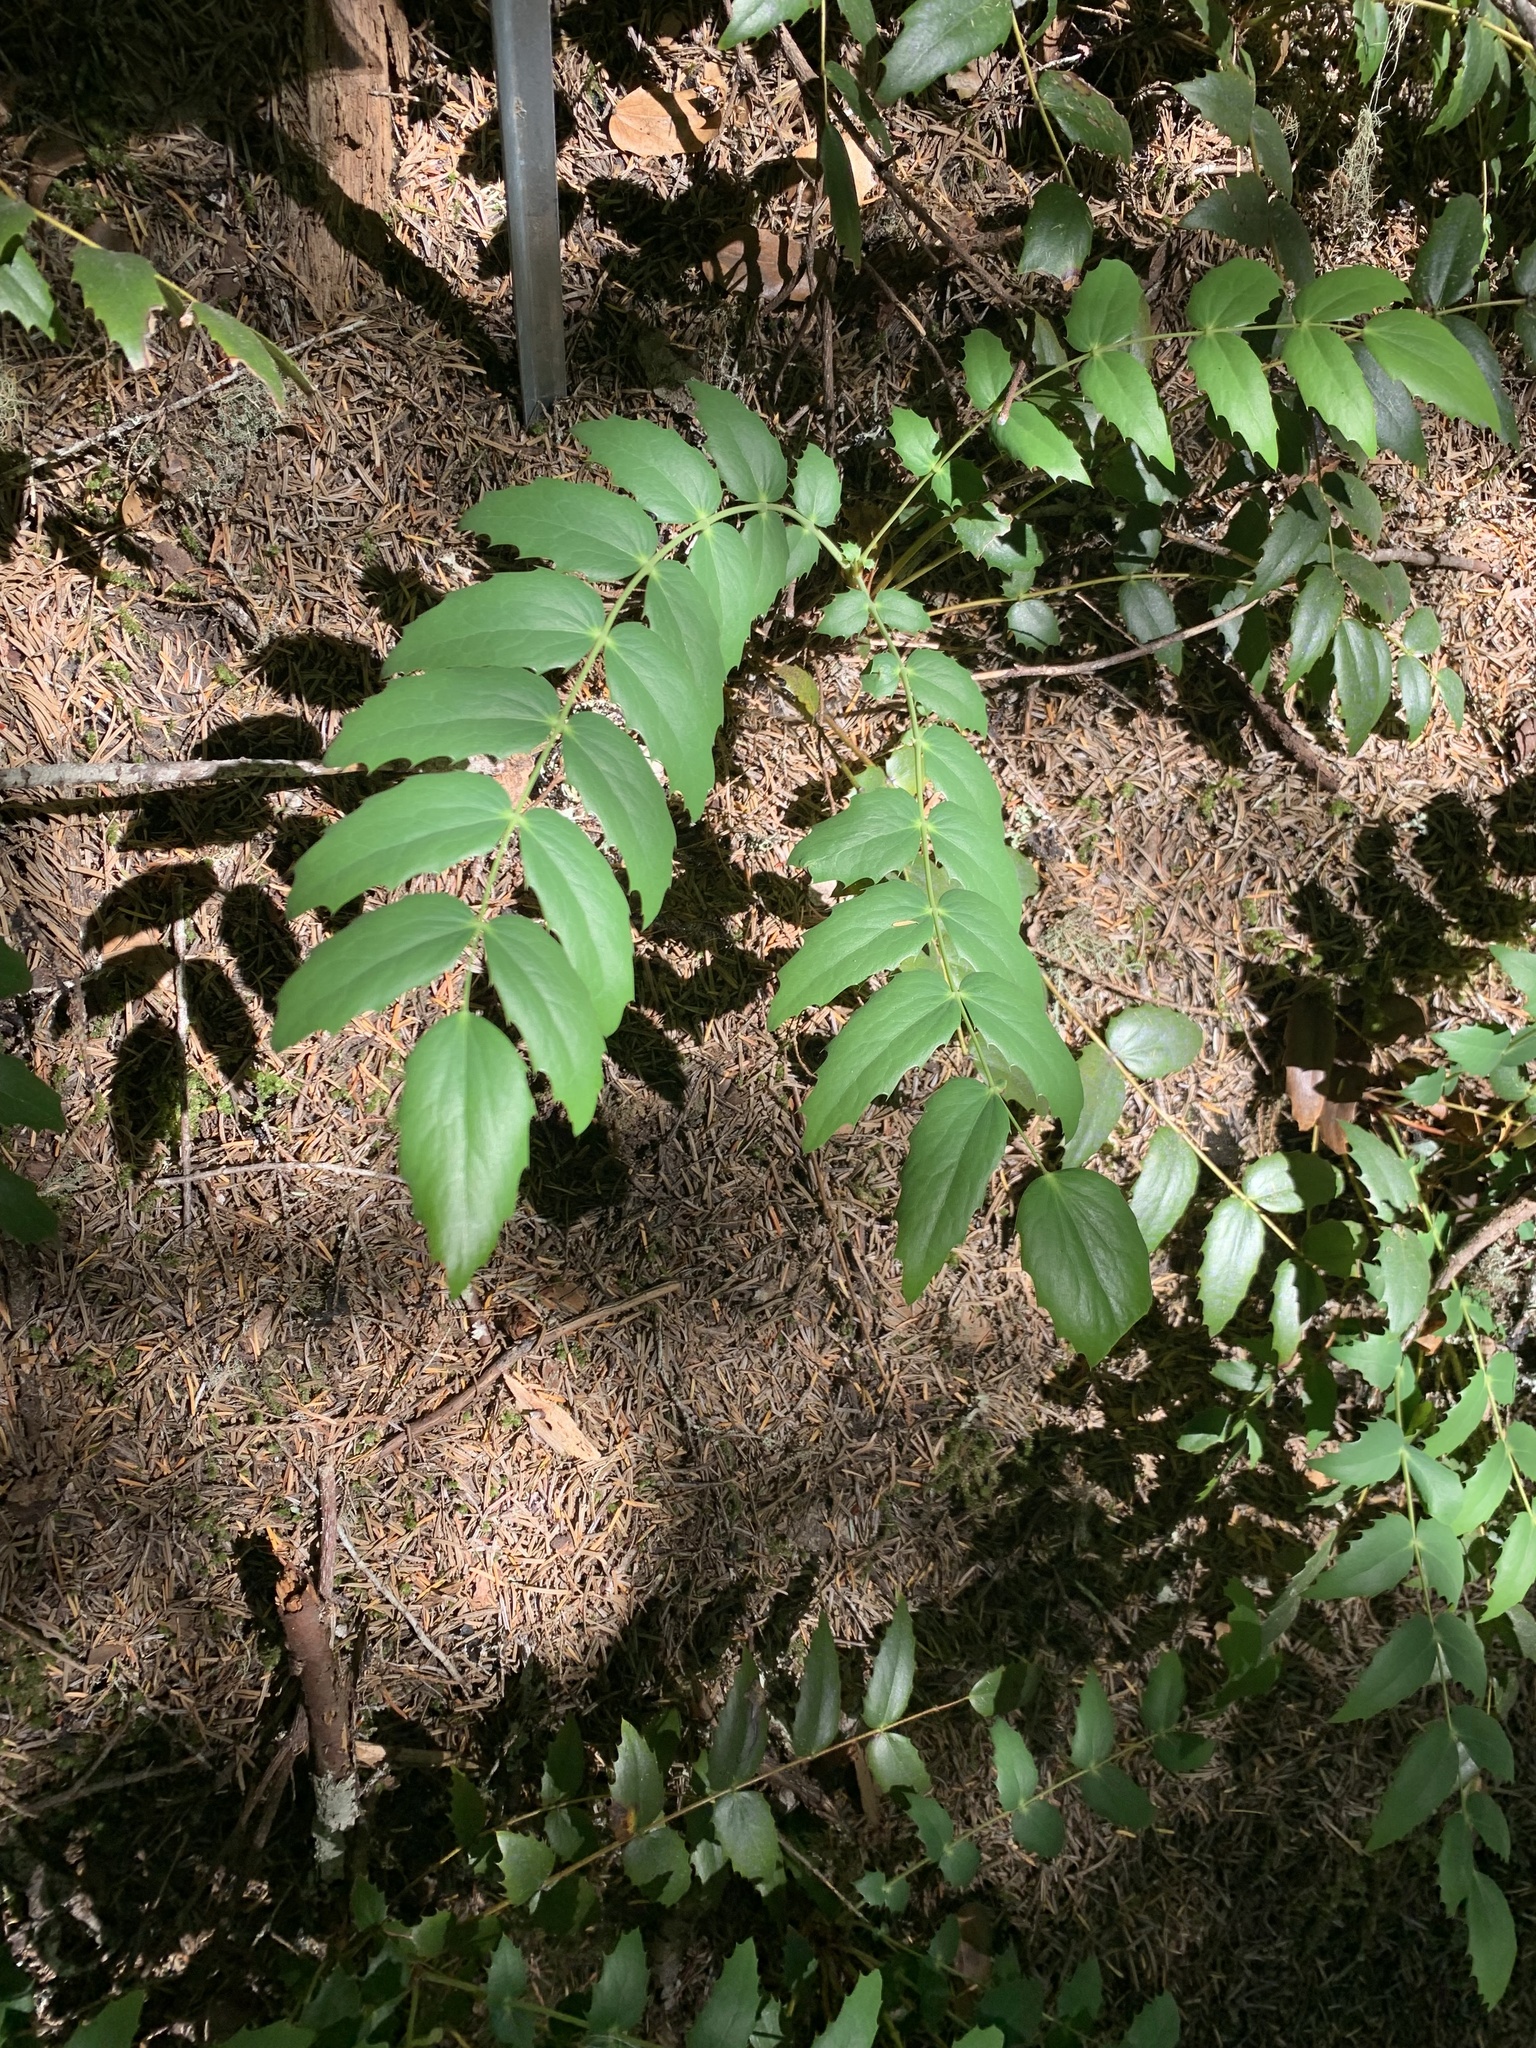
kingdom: Plantae
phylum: Tracheophyta
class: Magnoliopsida
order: Ranunculales
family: Berberidaceae
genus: Mahonia
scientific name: Mahonia nervosa
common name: Cascade oregon-grape
